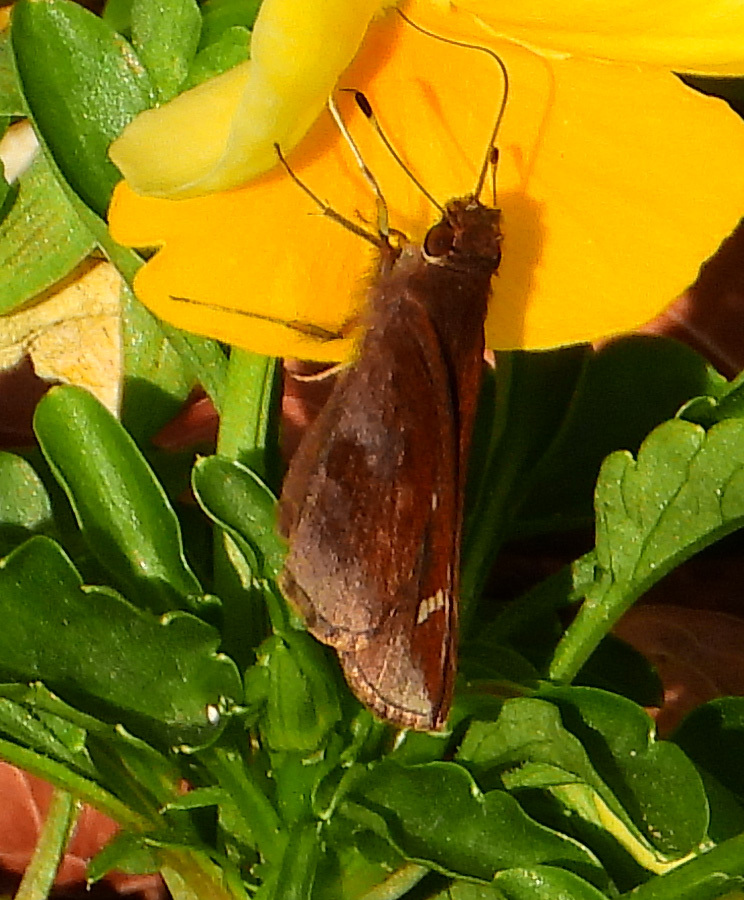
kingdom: Animalia
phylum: Arthropoda
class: Insecta
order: Lepidoptera
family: Hesperiidae
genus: Lerema
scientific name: Lerema accius
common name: Clouded skipper
